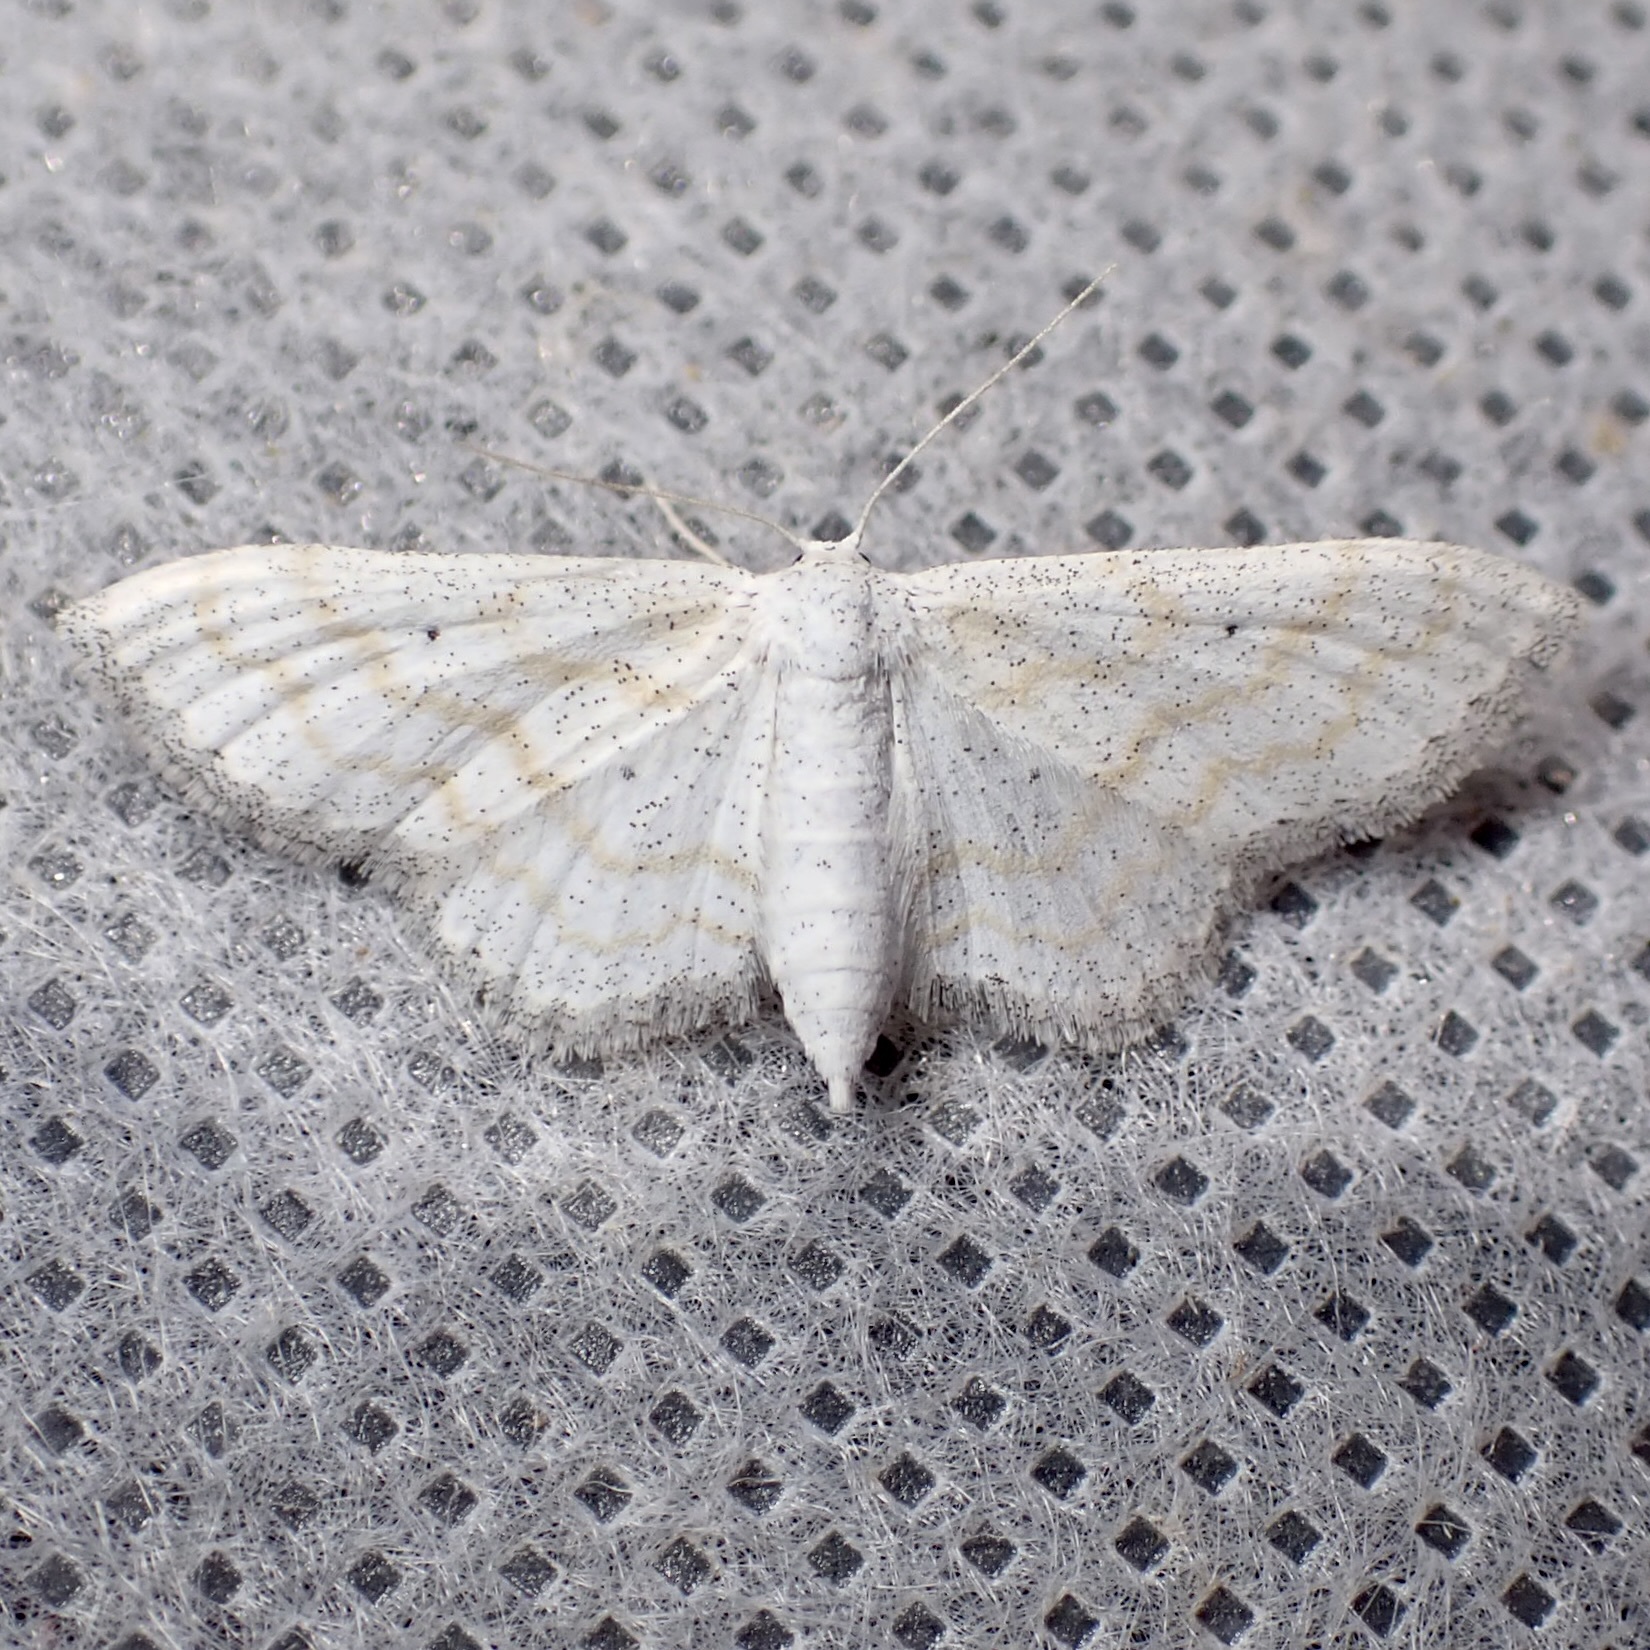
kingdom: Animalia
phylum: Arthropoda
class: Insecta
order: Lepidoptera
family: Geometridae
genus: Lobocleta
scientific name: Lobocleta peralbata
